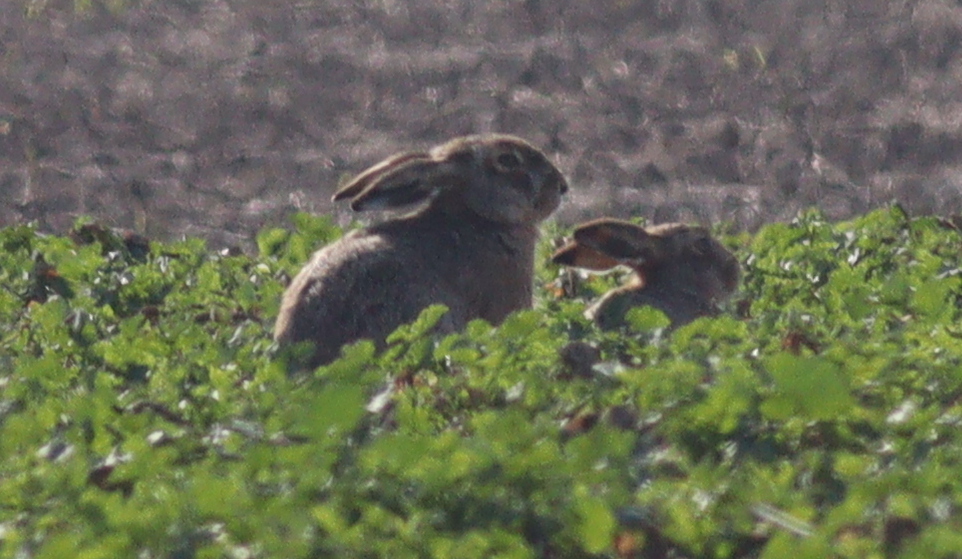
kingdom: Animalia
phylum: Chordata
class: Mammalia
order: Lagomorpha
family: Leporidae
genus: Lepus
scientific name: Lepus europaeus
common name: European hare
